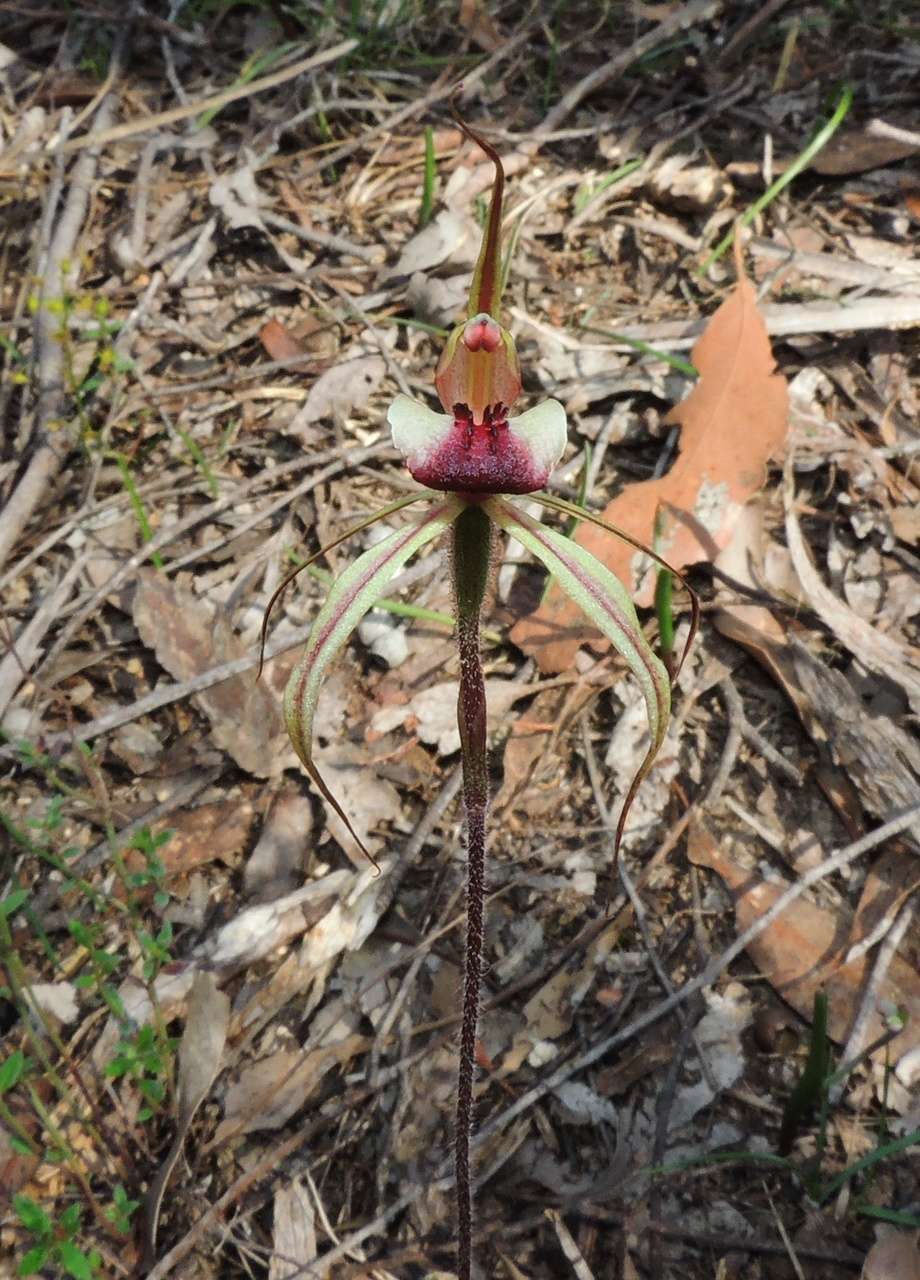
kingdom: Plantae
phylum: Tracheophyta
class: Liliopsida
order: Asparagales
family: Orchidaceae
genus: Caladenia
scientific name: Caladenia clavigera
